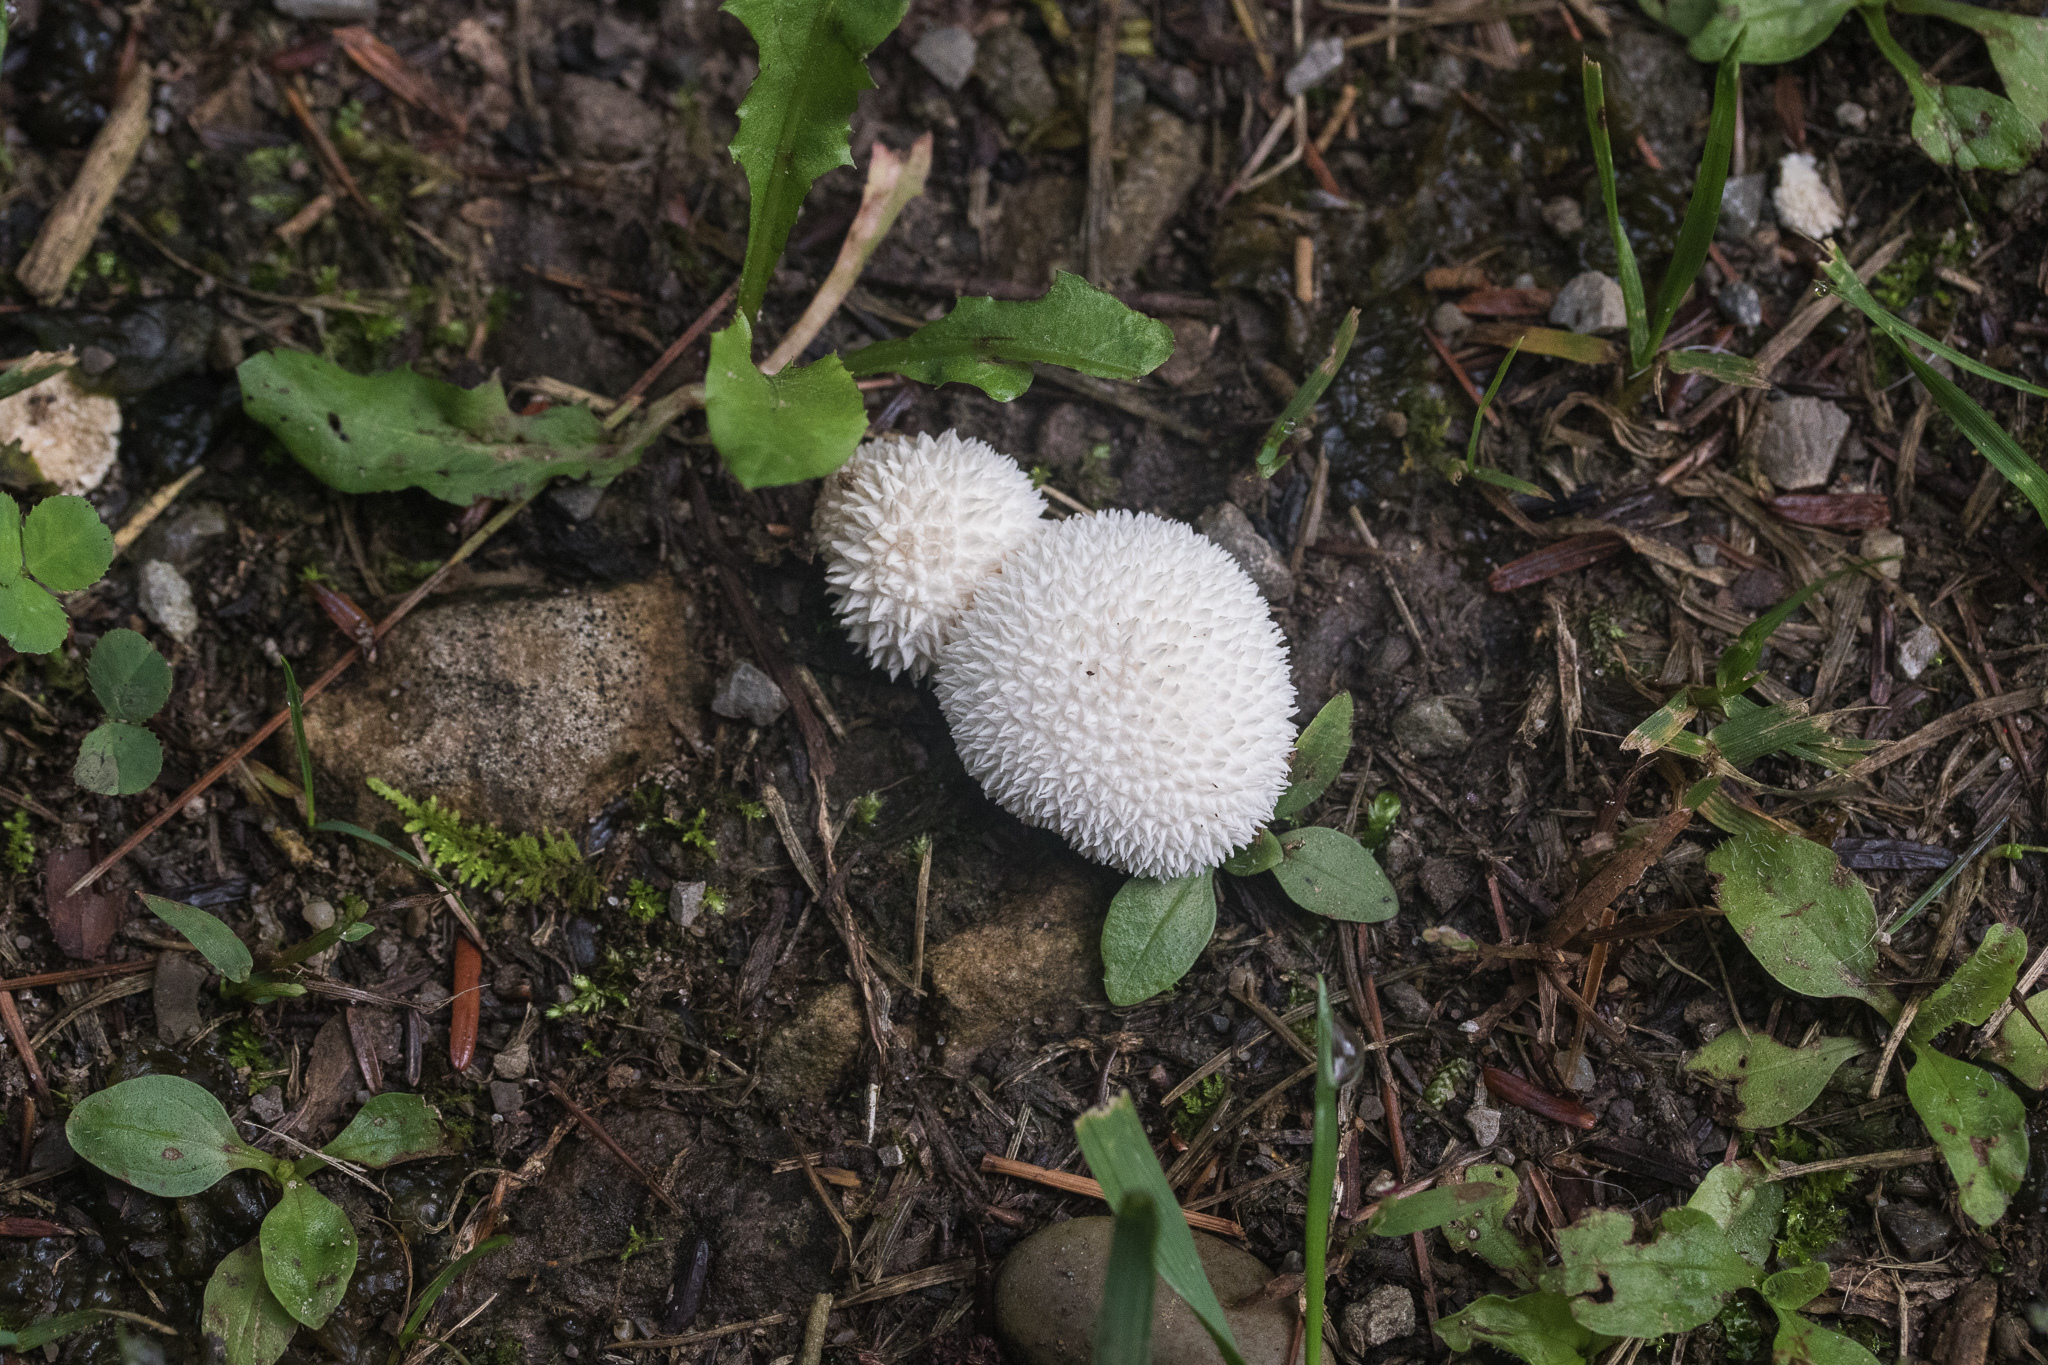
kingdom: Fungi
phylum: Basidiomycota
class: Agaricomycetes
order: Agaricales
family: Lycoperdaceae
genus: Lycoperdon
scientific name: Lycoperdon curtisii
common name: Curtis's puffball
